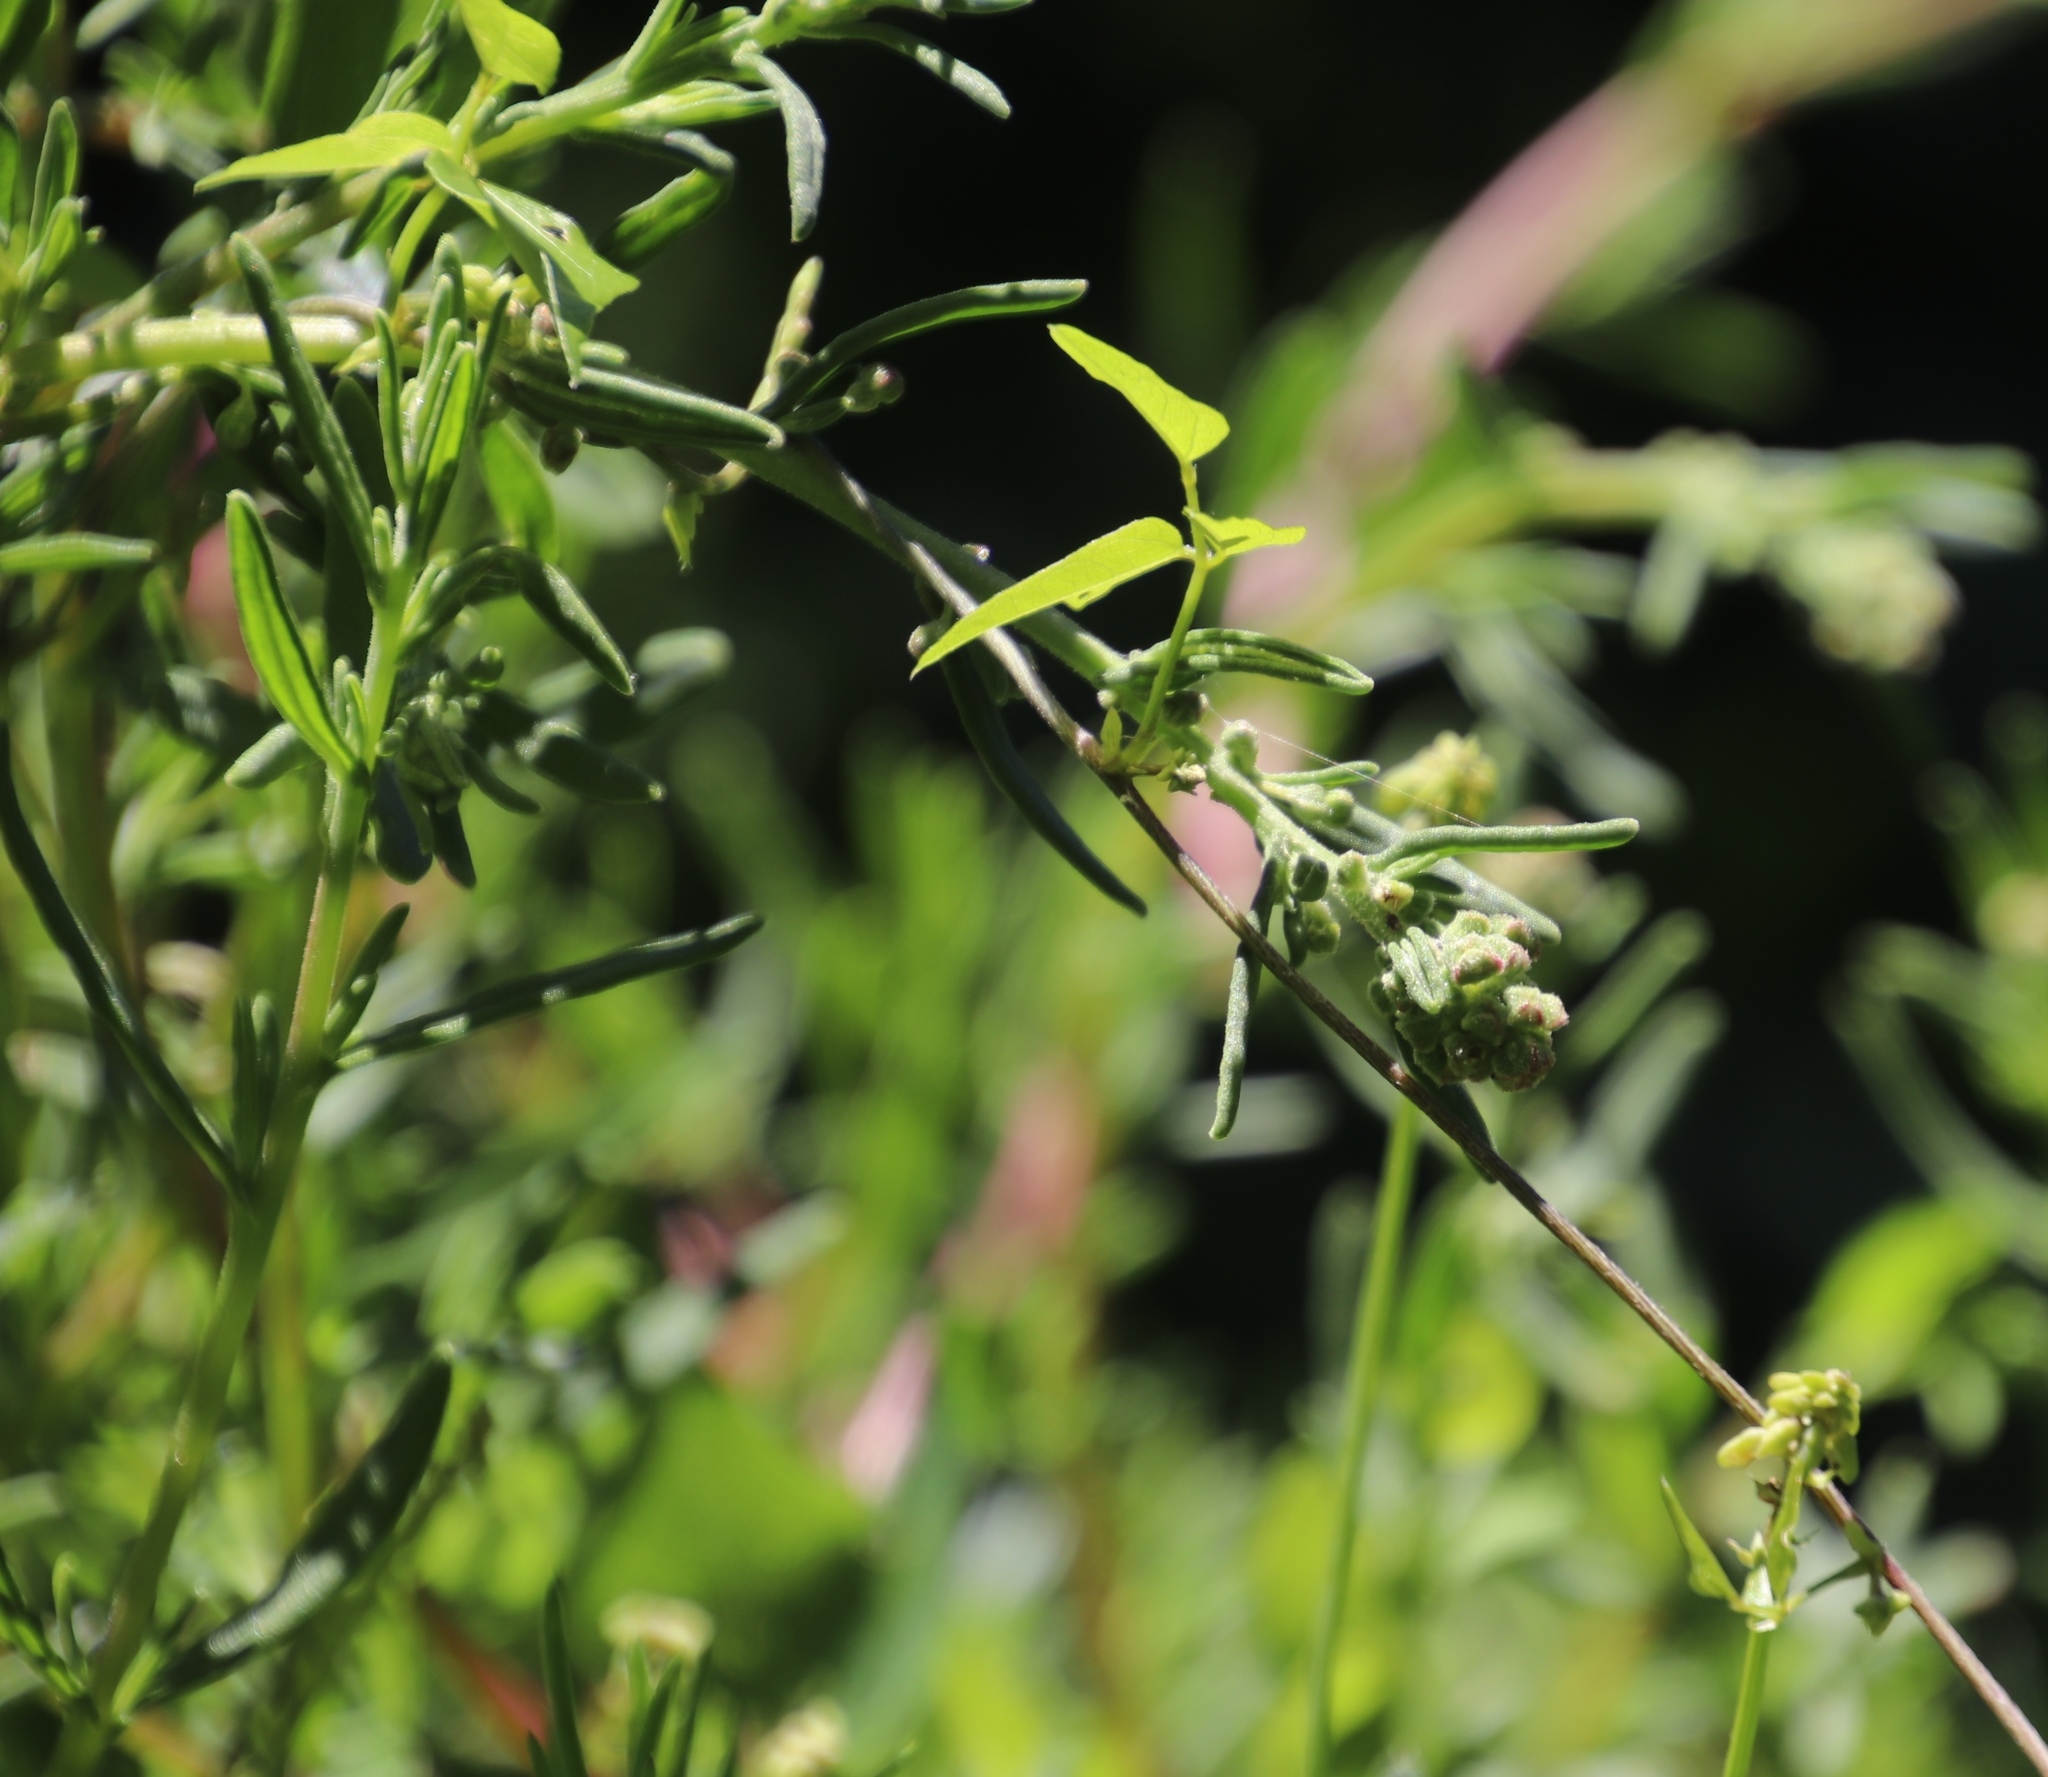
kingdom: Plantae
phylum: Tracheophyta
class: Magnoliopsida
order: Caryophyllales
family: Aizoaceae
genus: Tetragonia
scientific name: Tetragonia fruticosa
